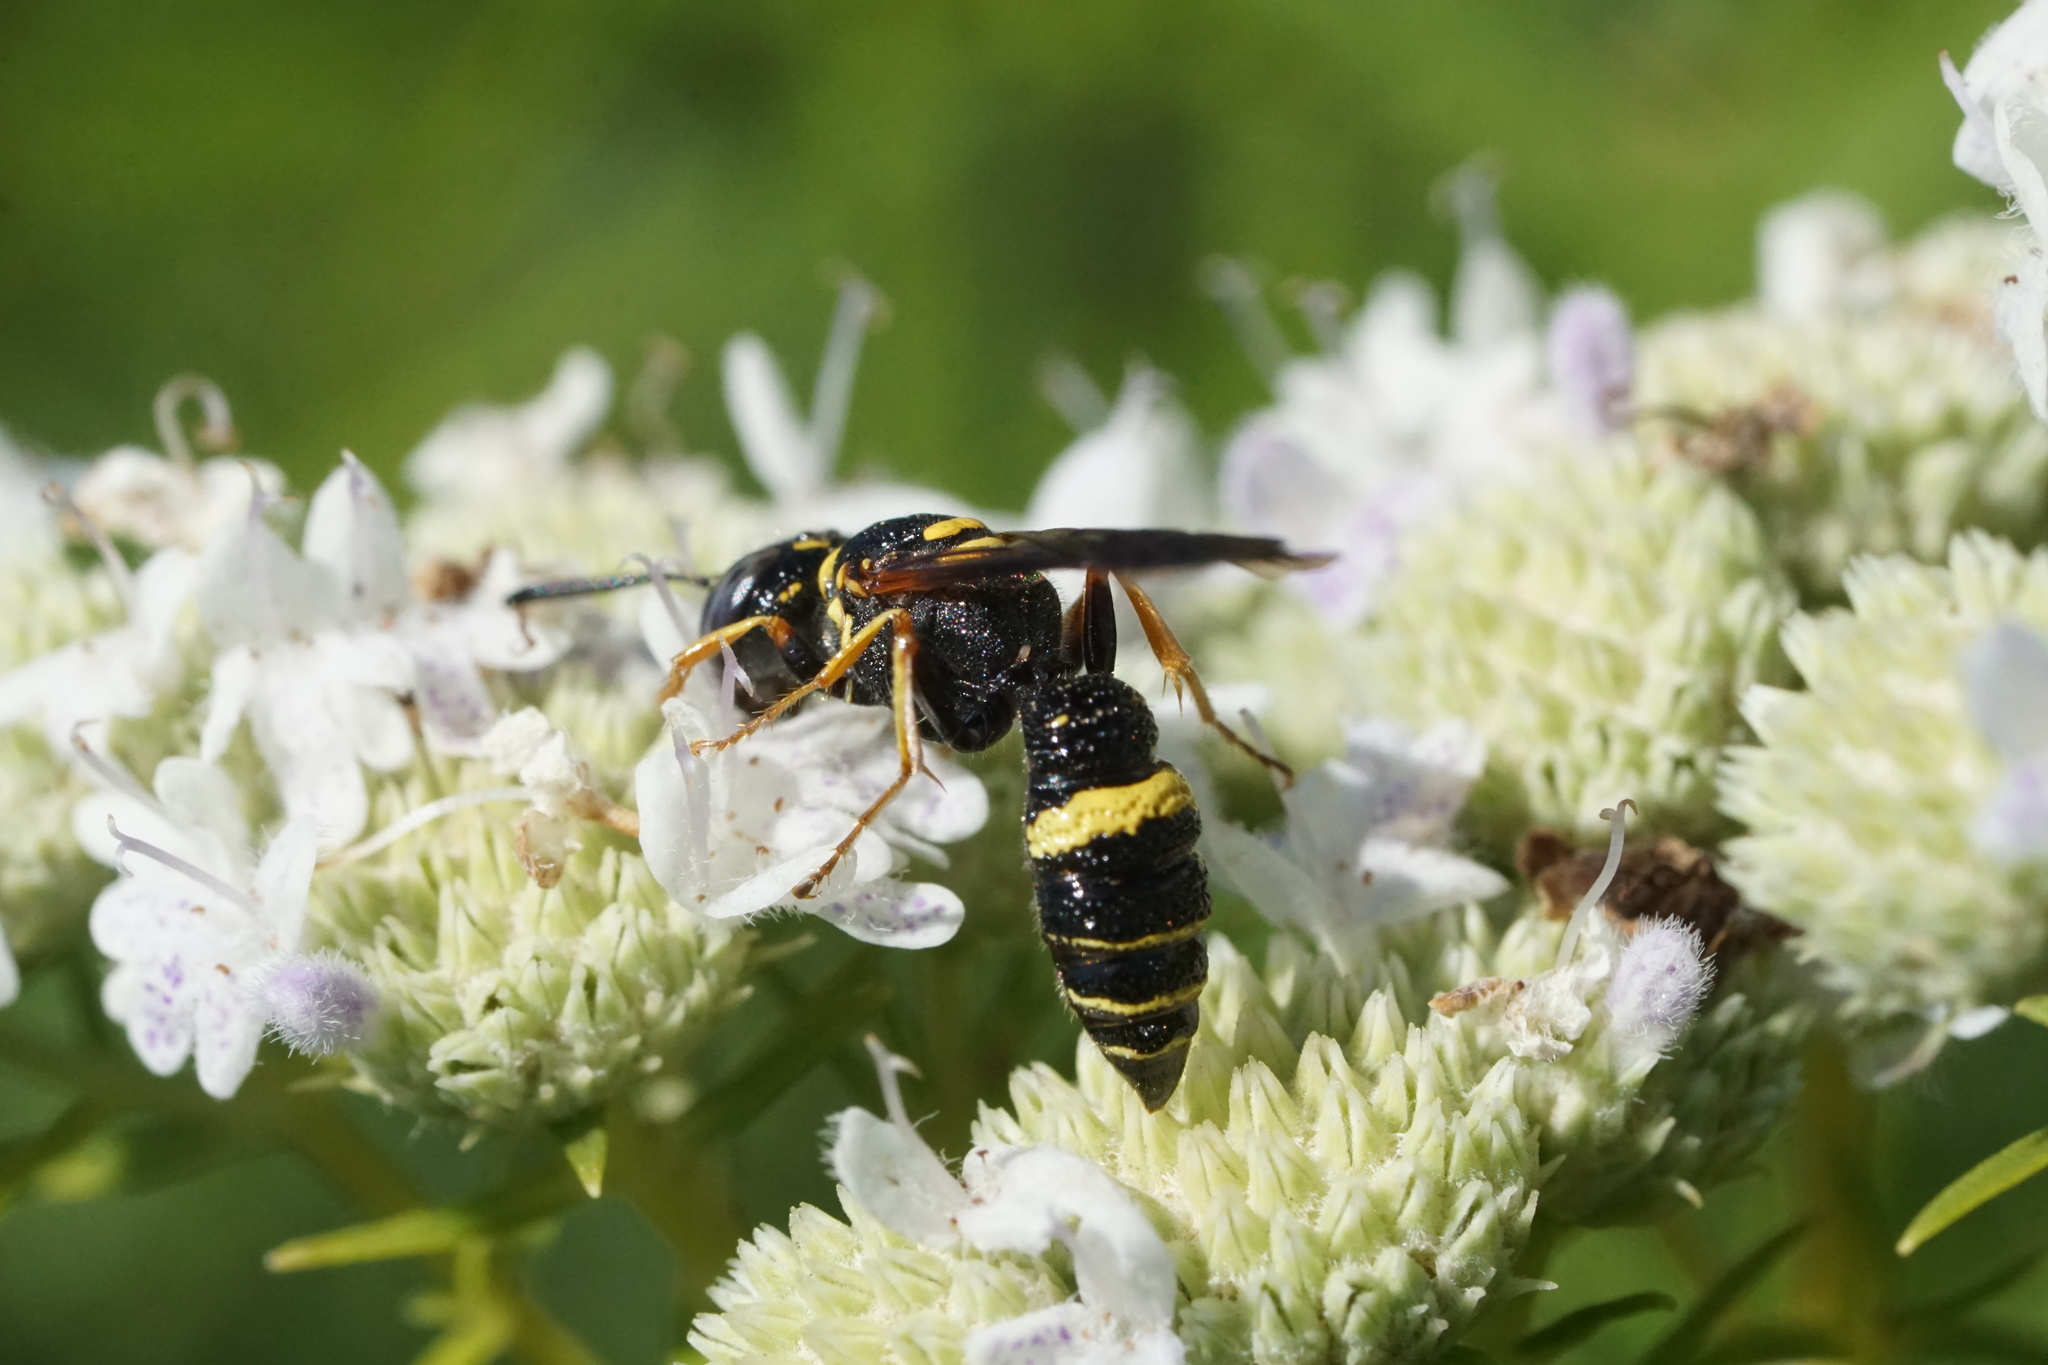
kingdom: Animalia
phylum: Arthropoda
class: Insecta
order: Hymenoptera
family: Crabronidae
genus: Philanthus
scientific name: Philanthus gibbosus
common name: Humped beewolf
